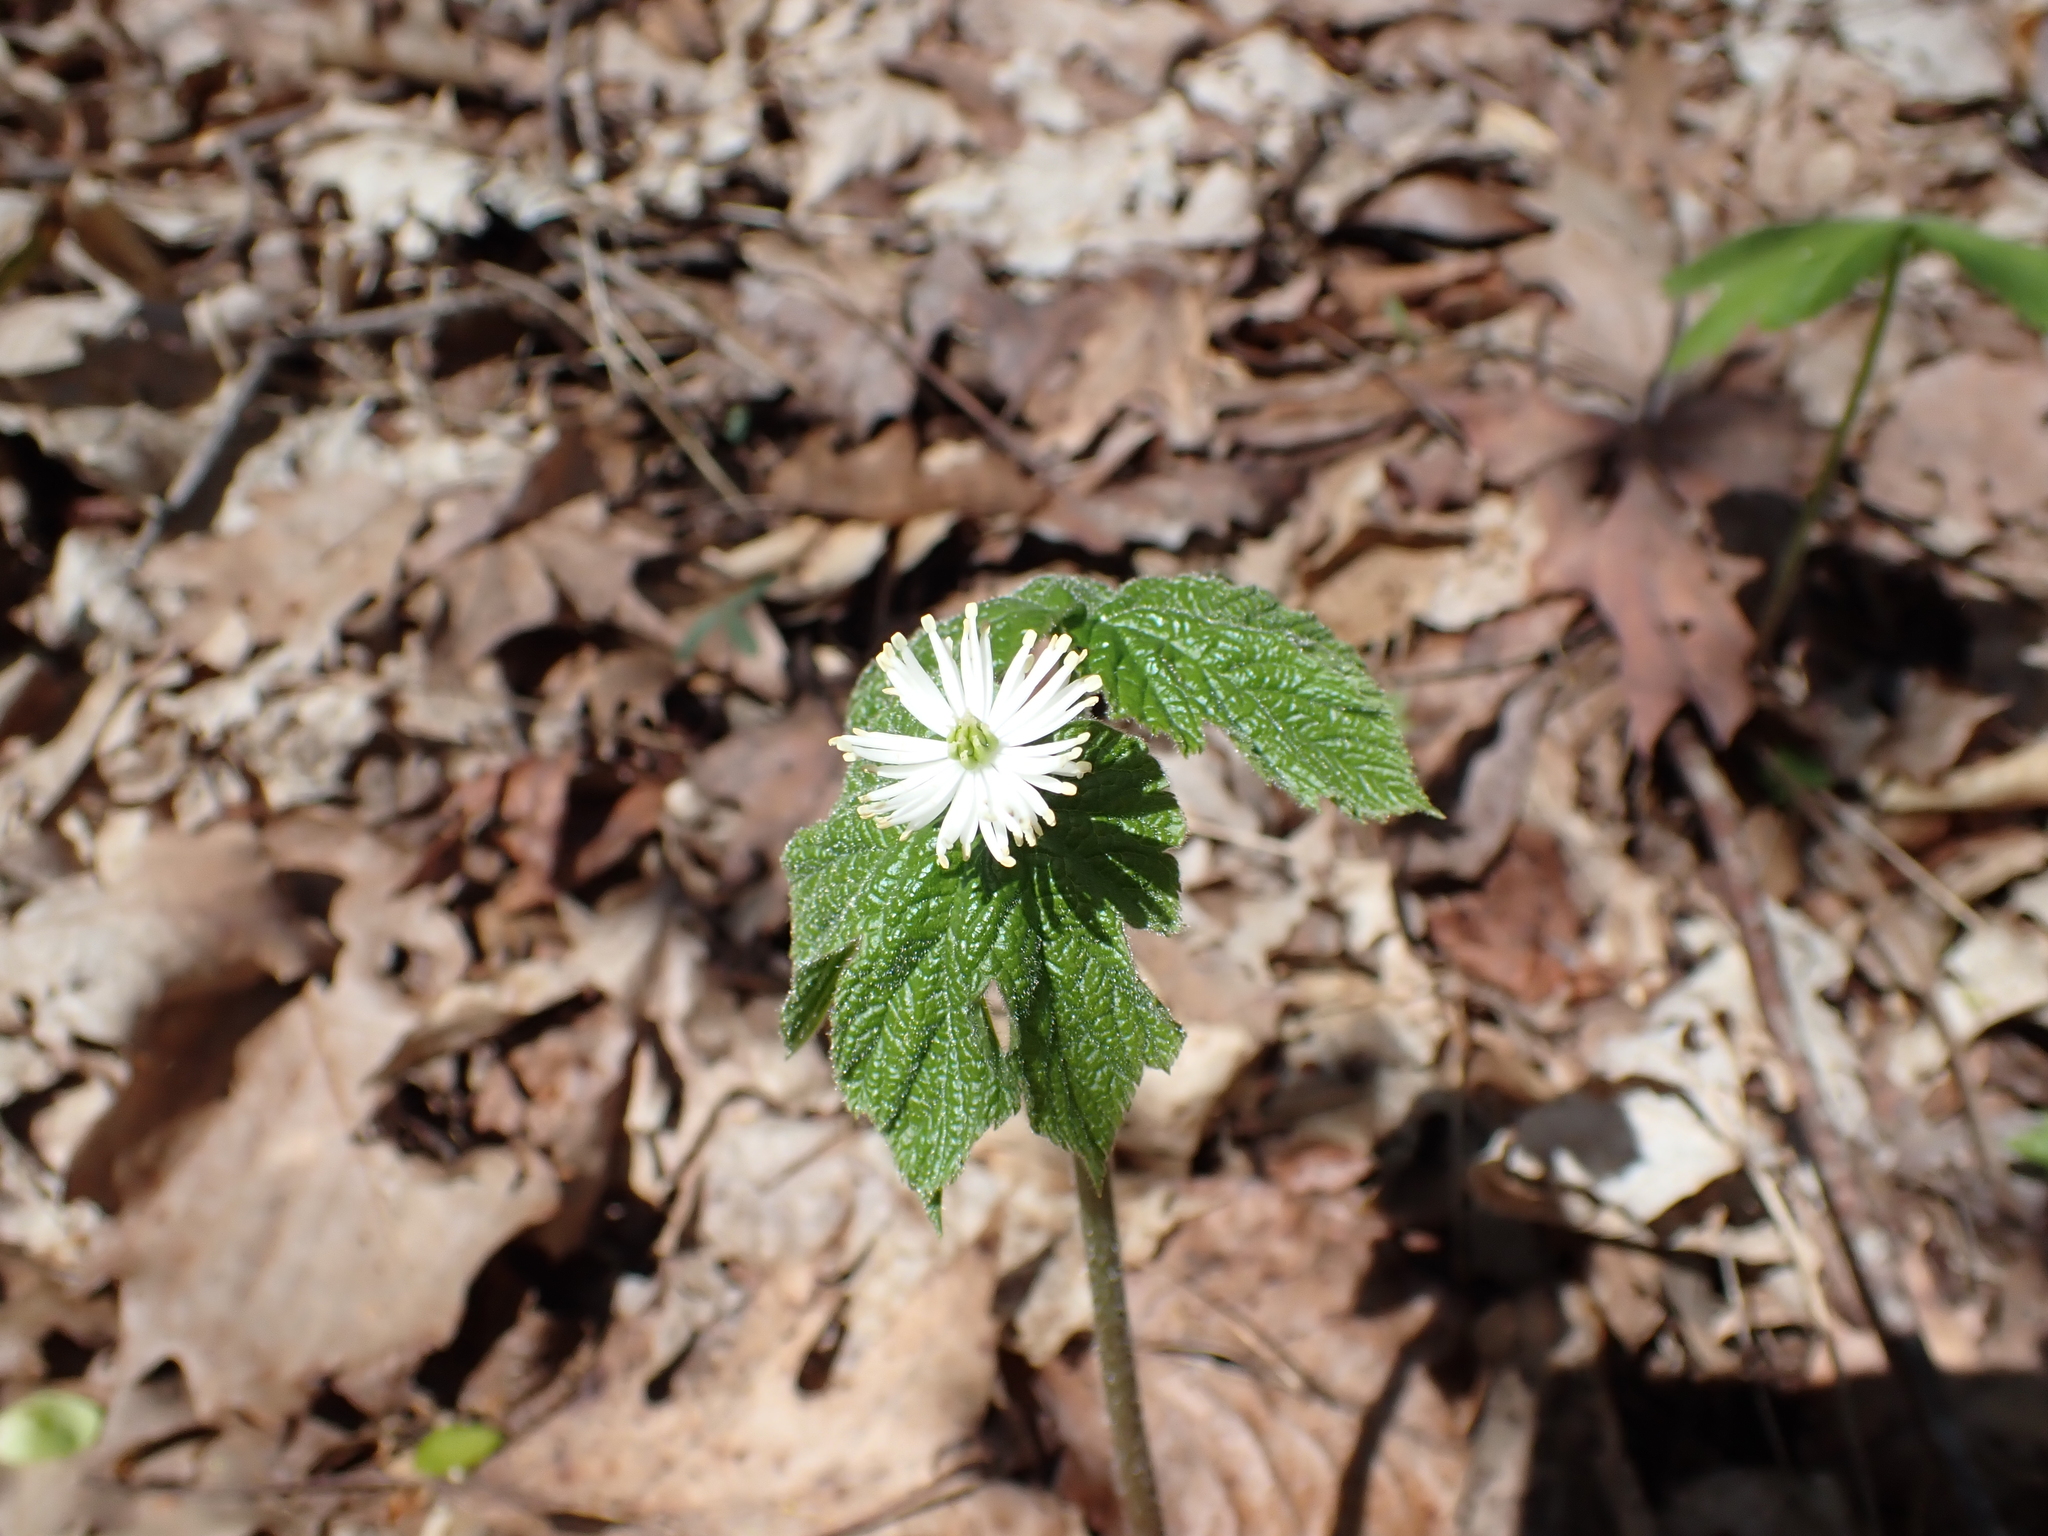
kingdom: Plantae
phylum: Tracheophyta
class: Magnoliopsida
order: Ranunculales
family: Ranunculaceae
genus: Hydrastis
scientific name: Hydrastis canadensis
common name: Goldenseal
